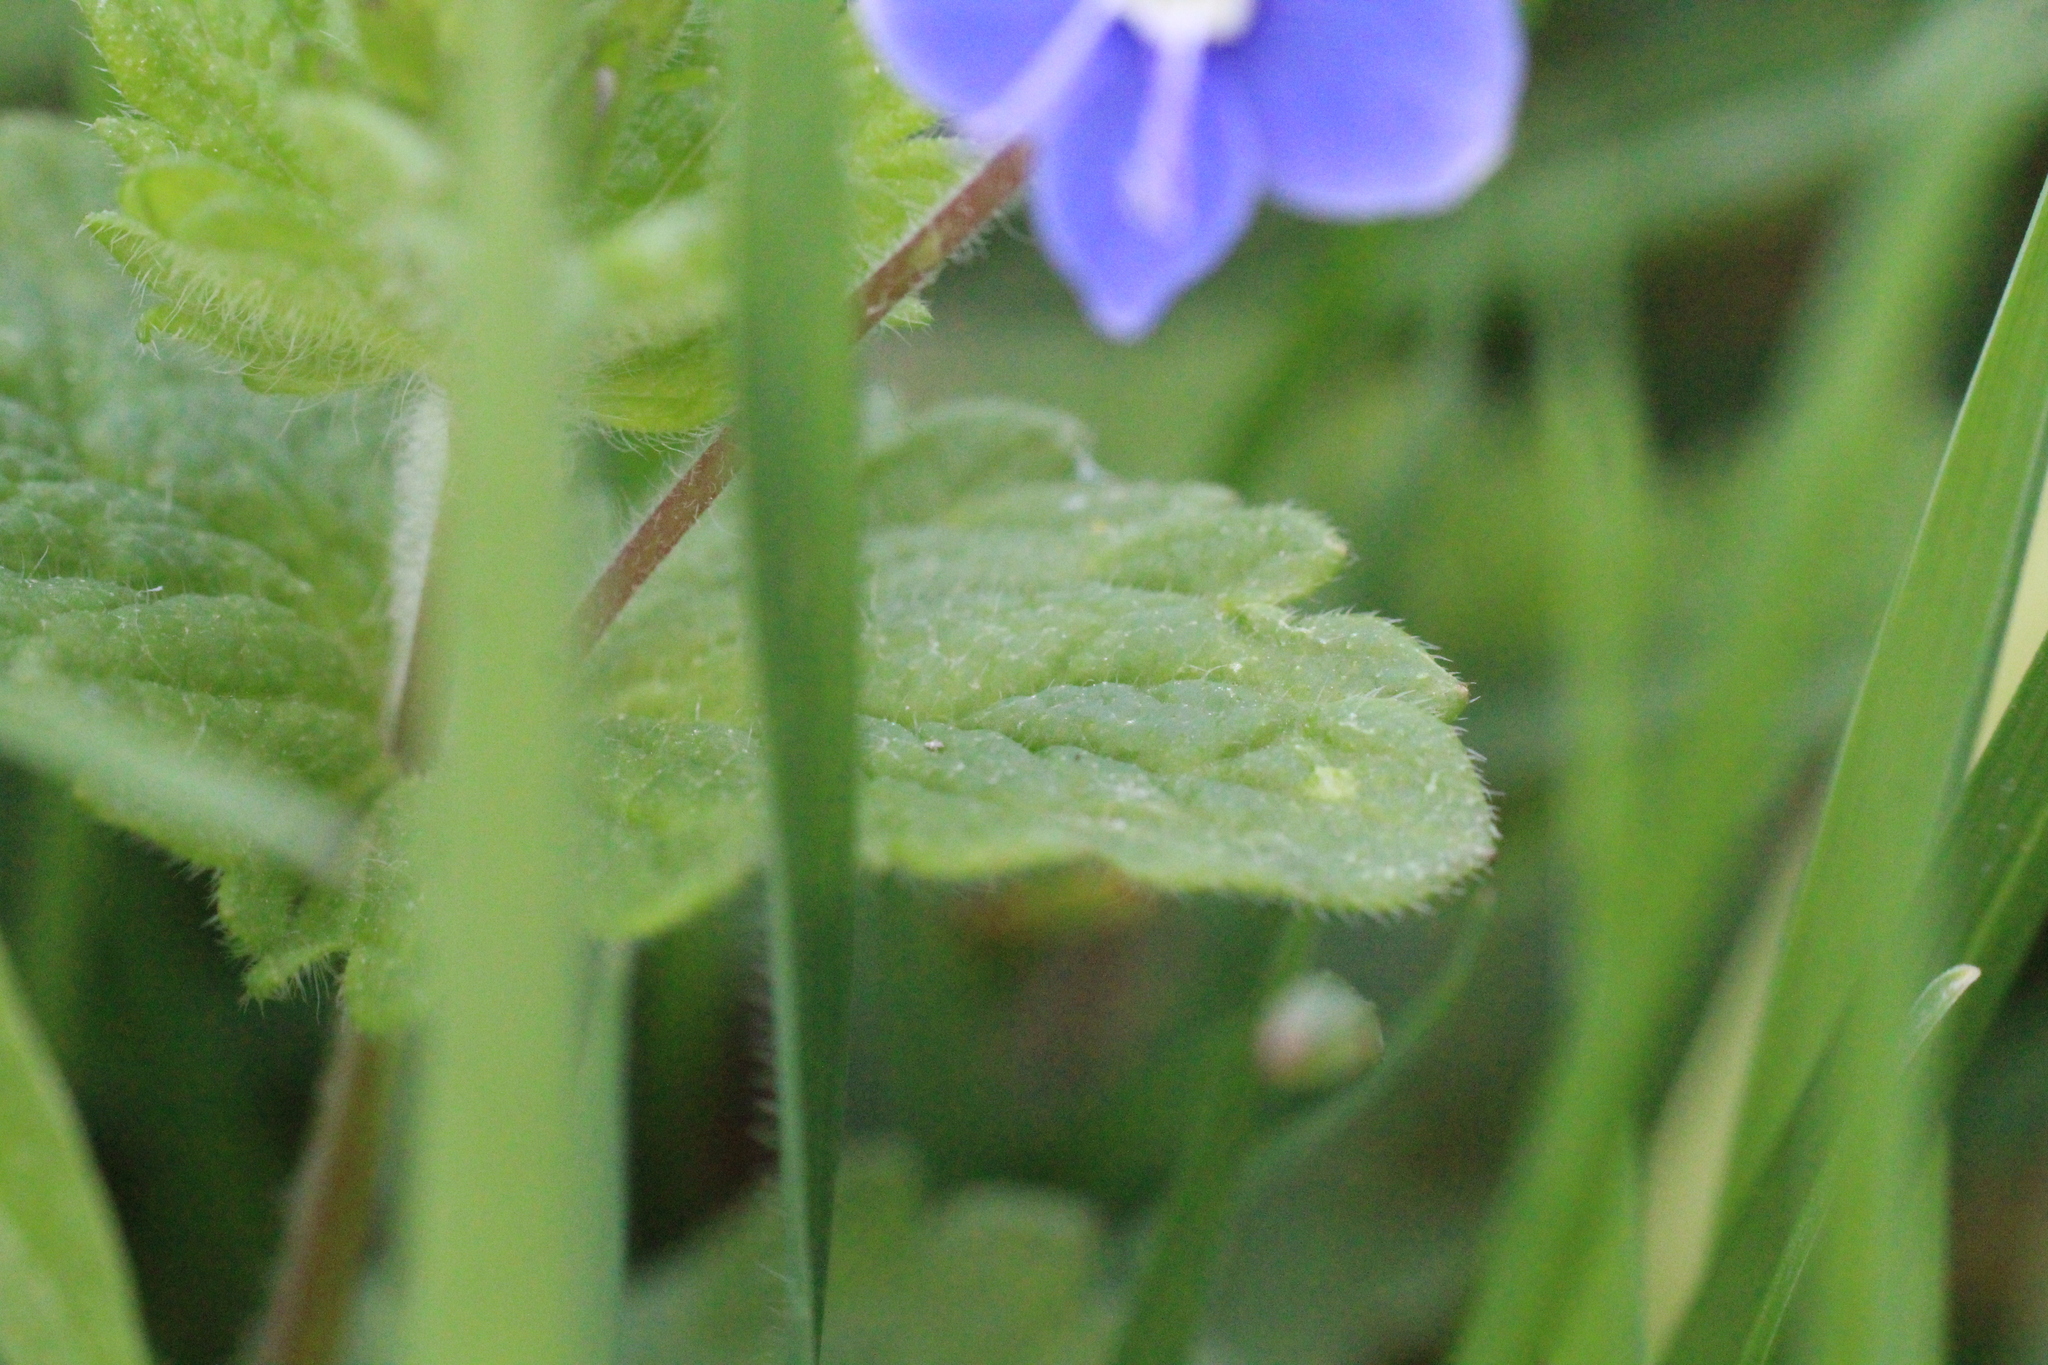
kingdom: Plantae
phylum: Tracheophyta
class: Magnoliopsida
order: Lamiales
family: Plantaginaceae
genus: Veronica
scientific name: Veronica chamaedrys
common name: Germander speedwell
